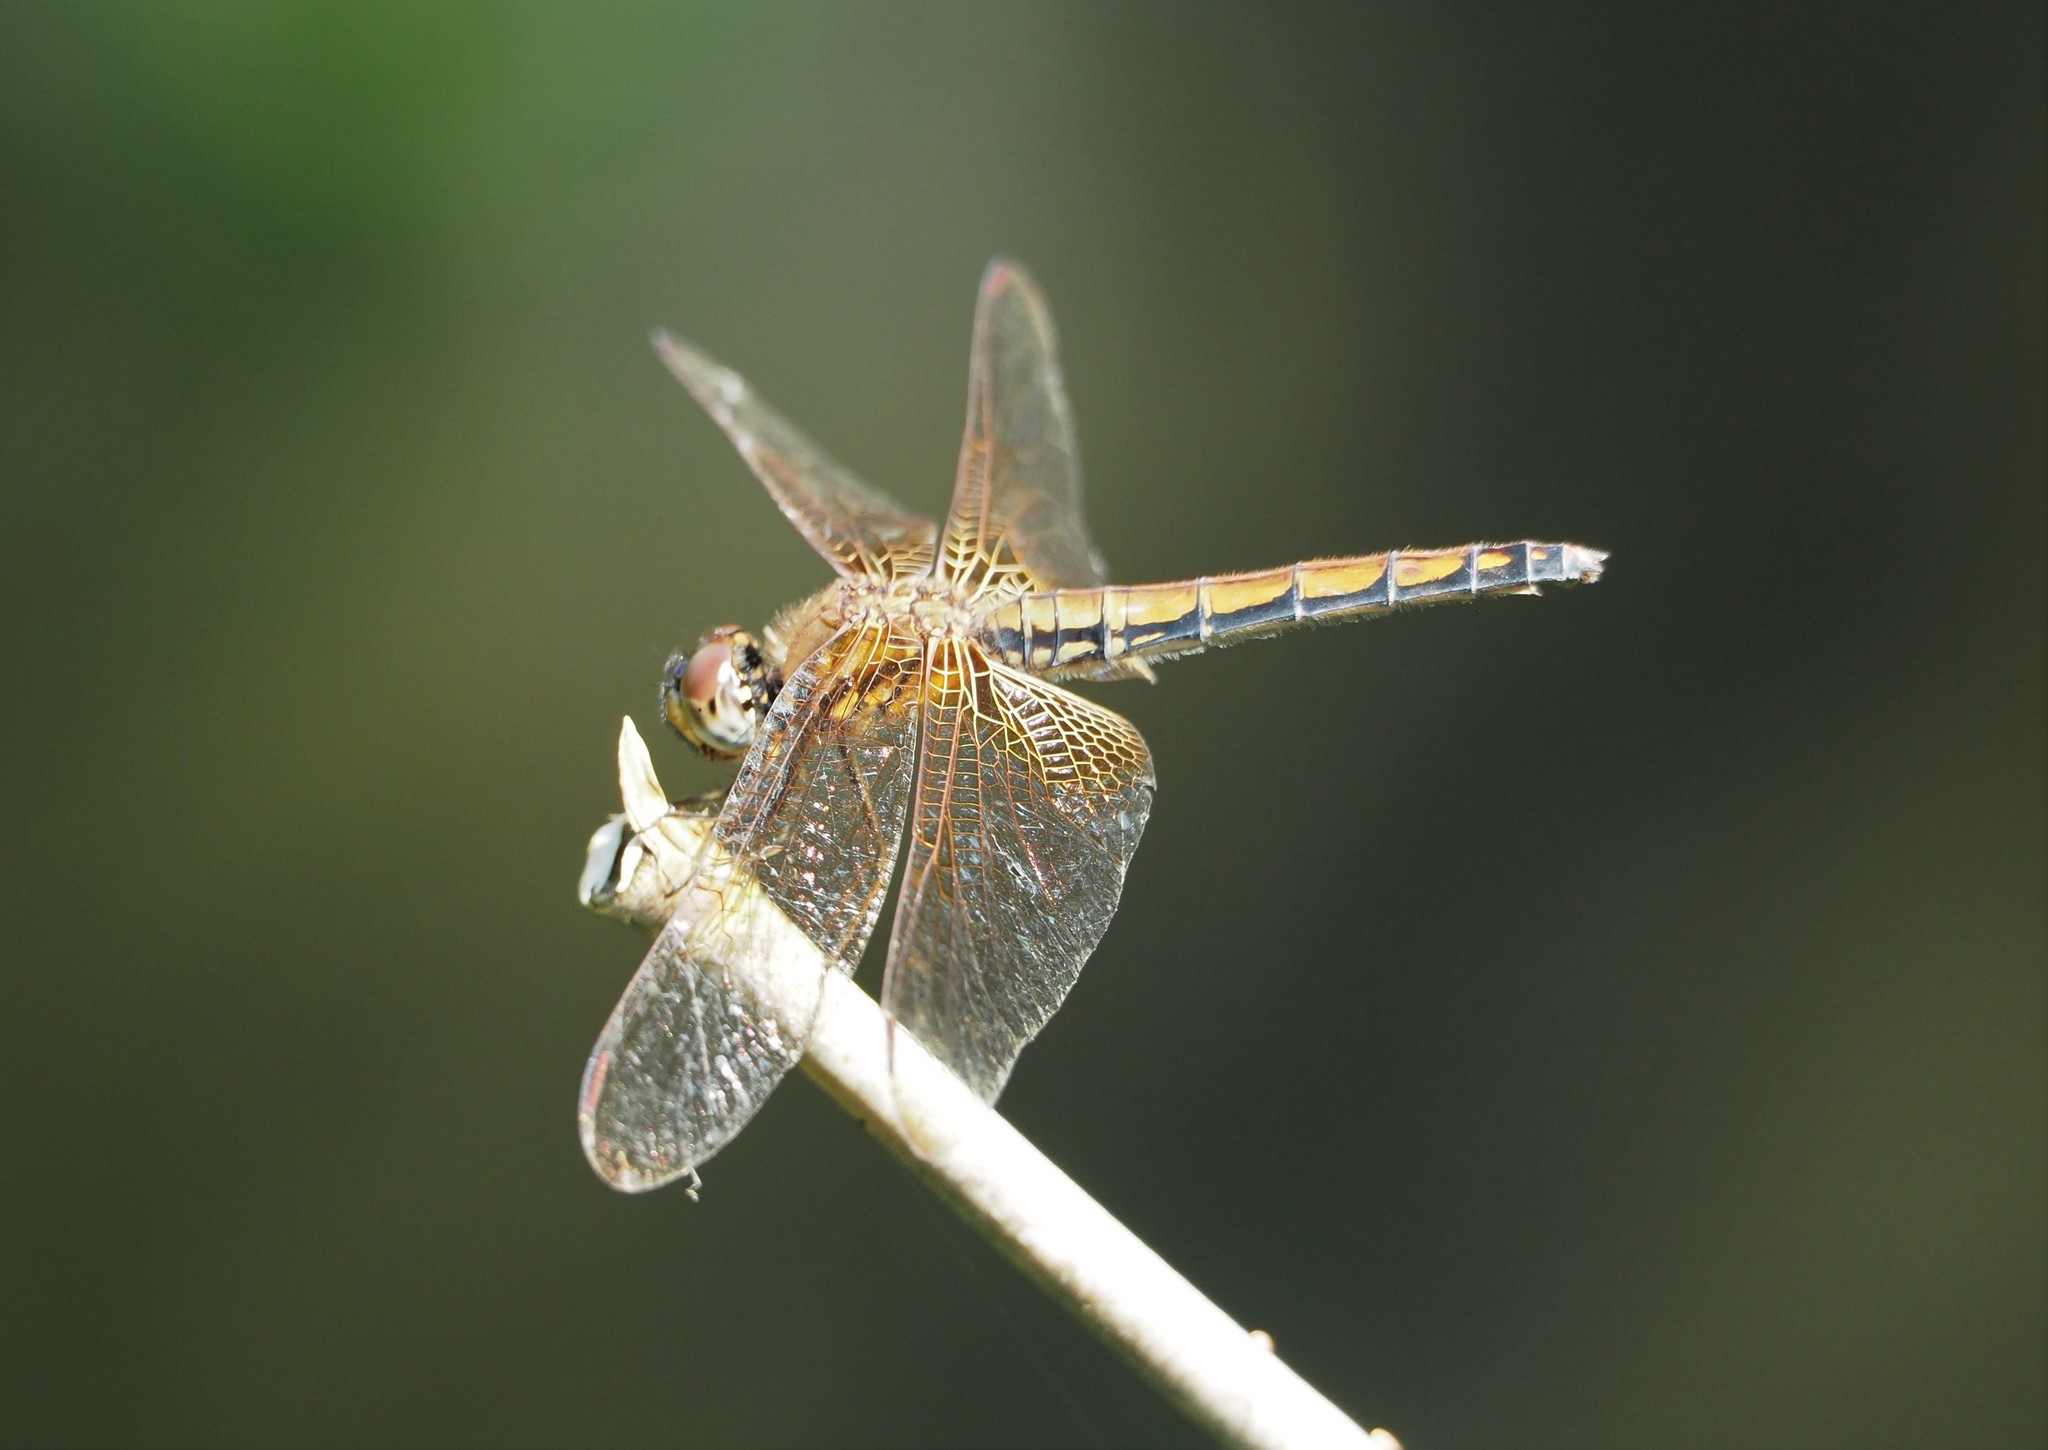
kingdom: Animalia
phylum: Arthropoda
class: Insecta
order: Odonata
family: Libellulidae
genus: Trithemis
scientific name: Trithemis aurora
